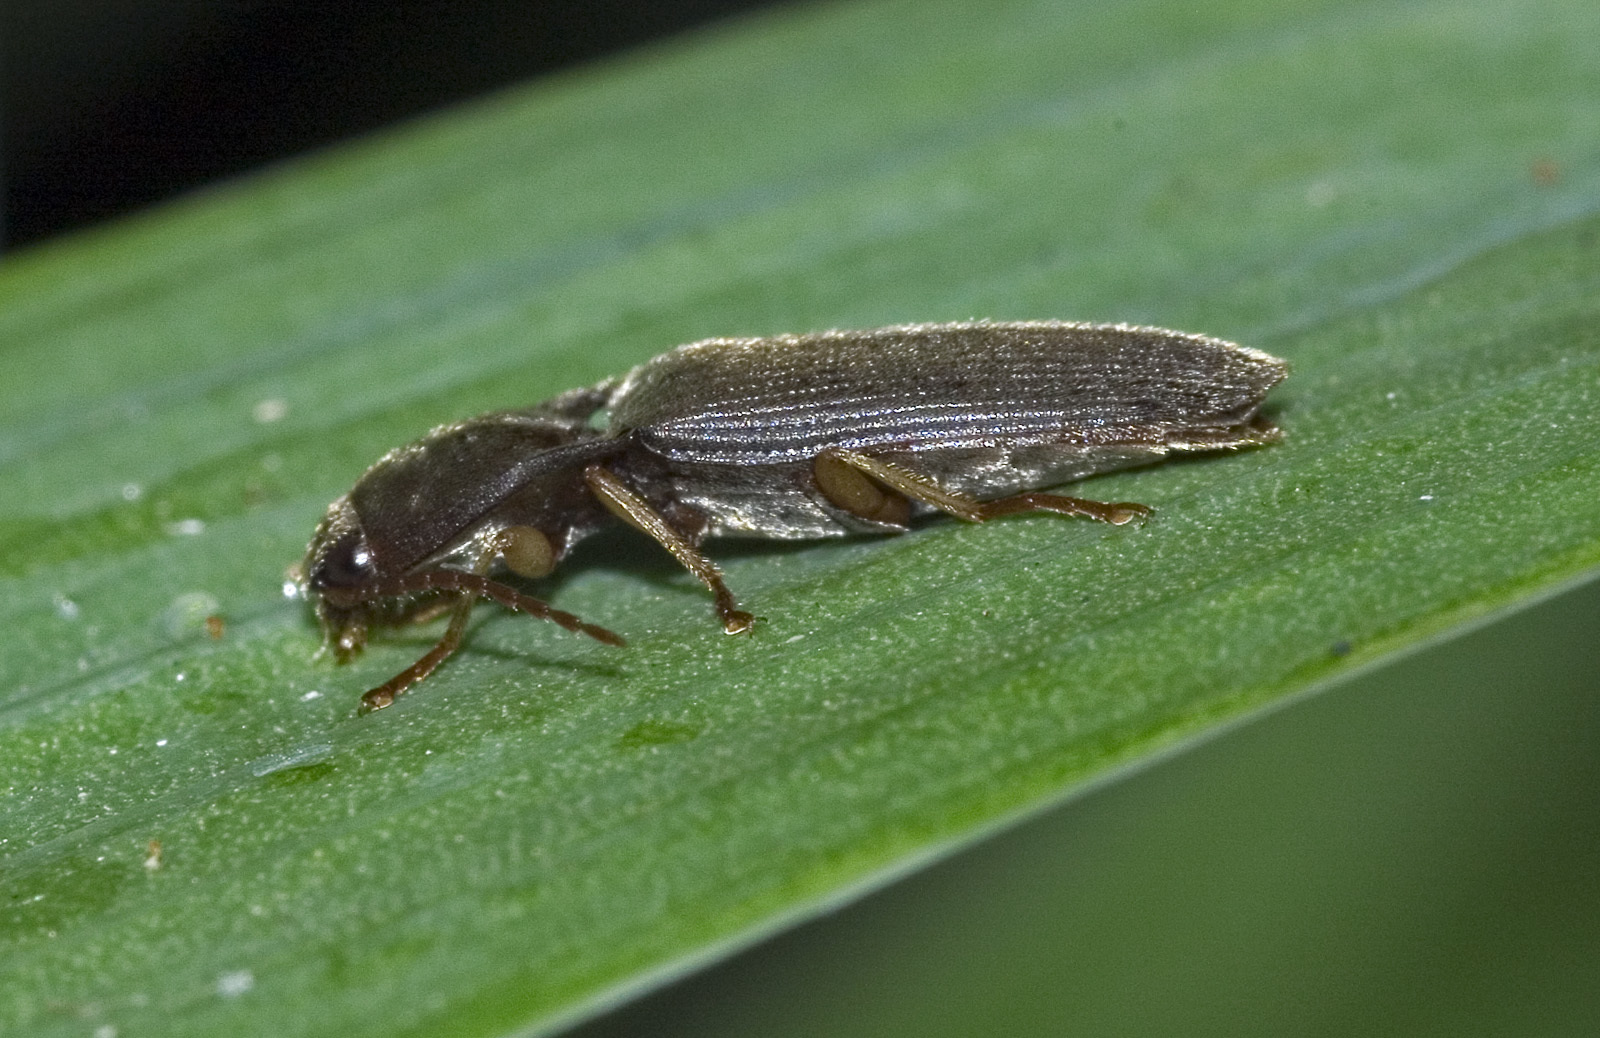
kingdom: Animalia
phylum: Arthropoda
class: Insecta
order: Coleoptera
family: Elateridae
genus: Conoderus
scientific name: Conoderus exsul
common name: Click beetle
